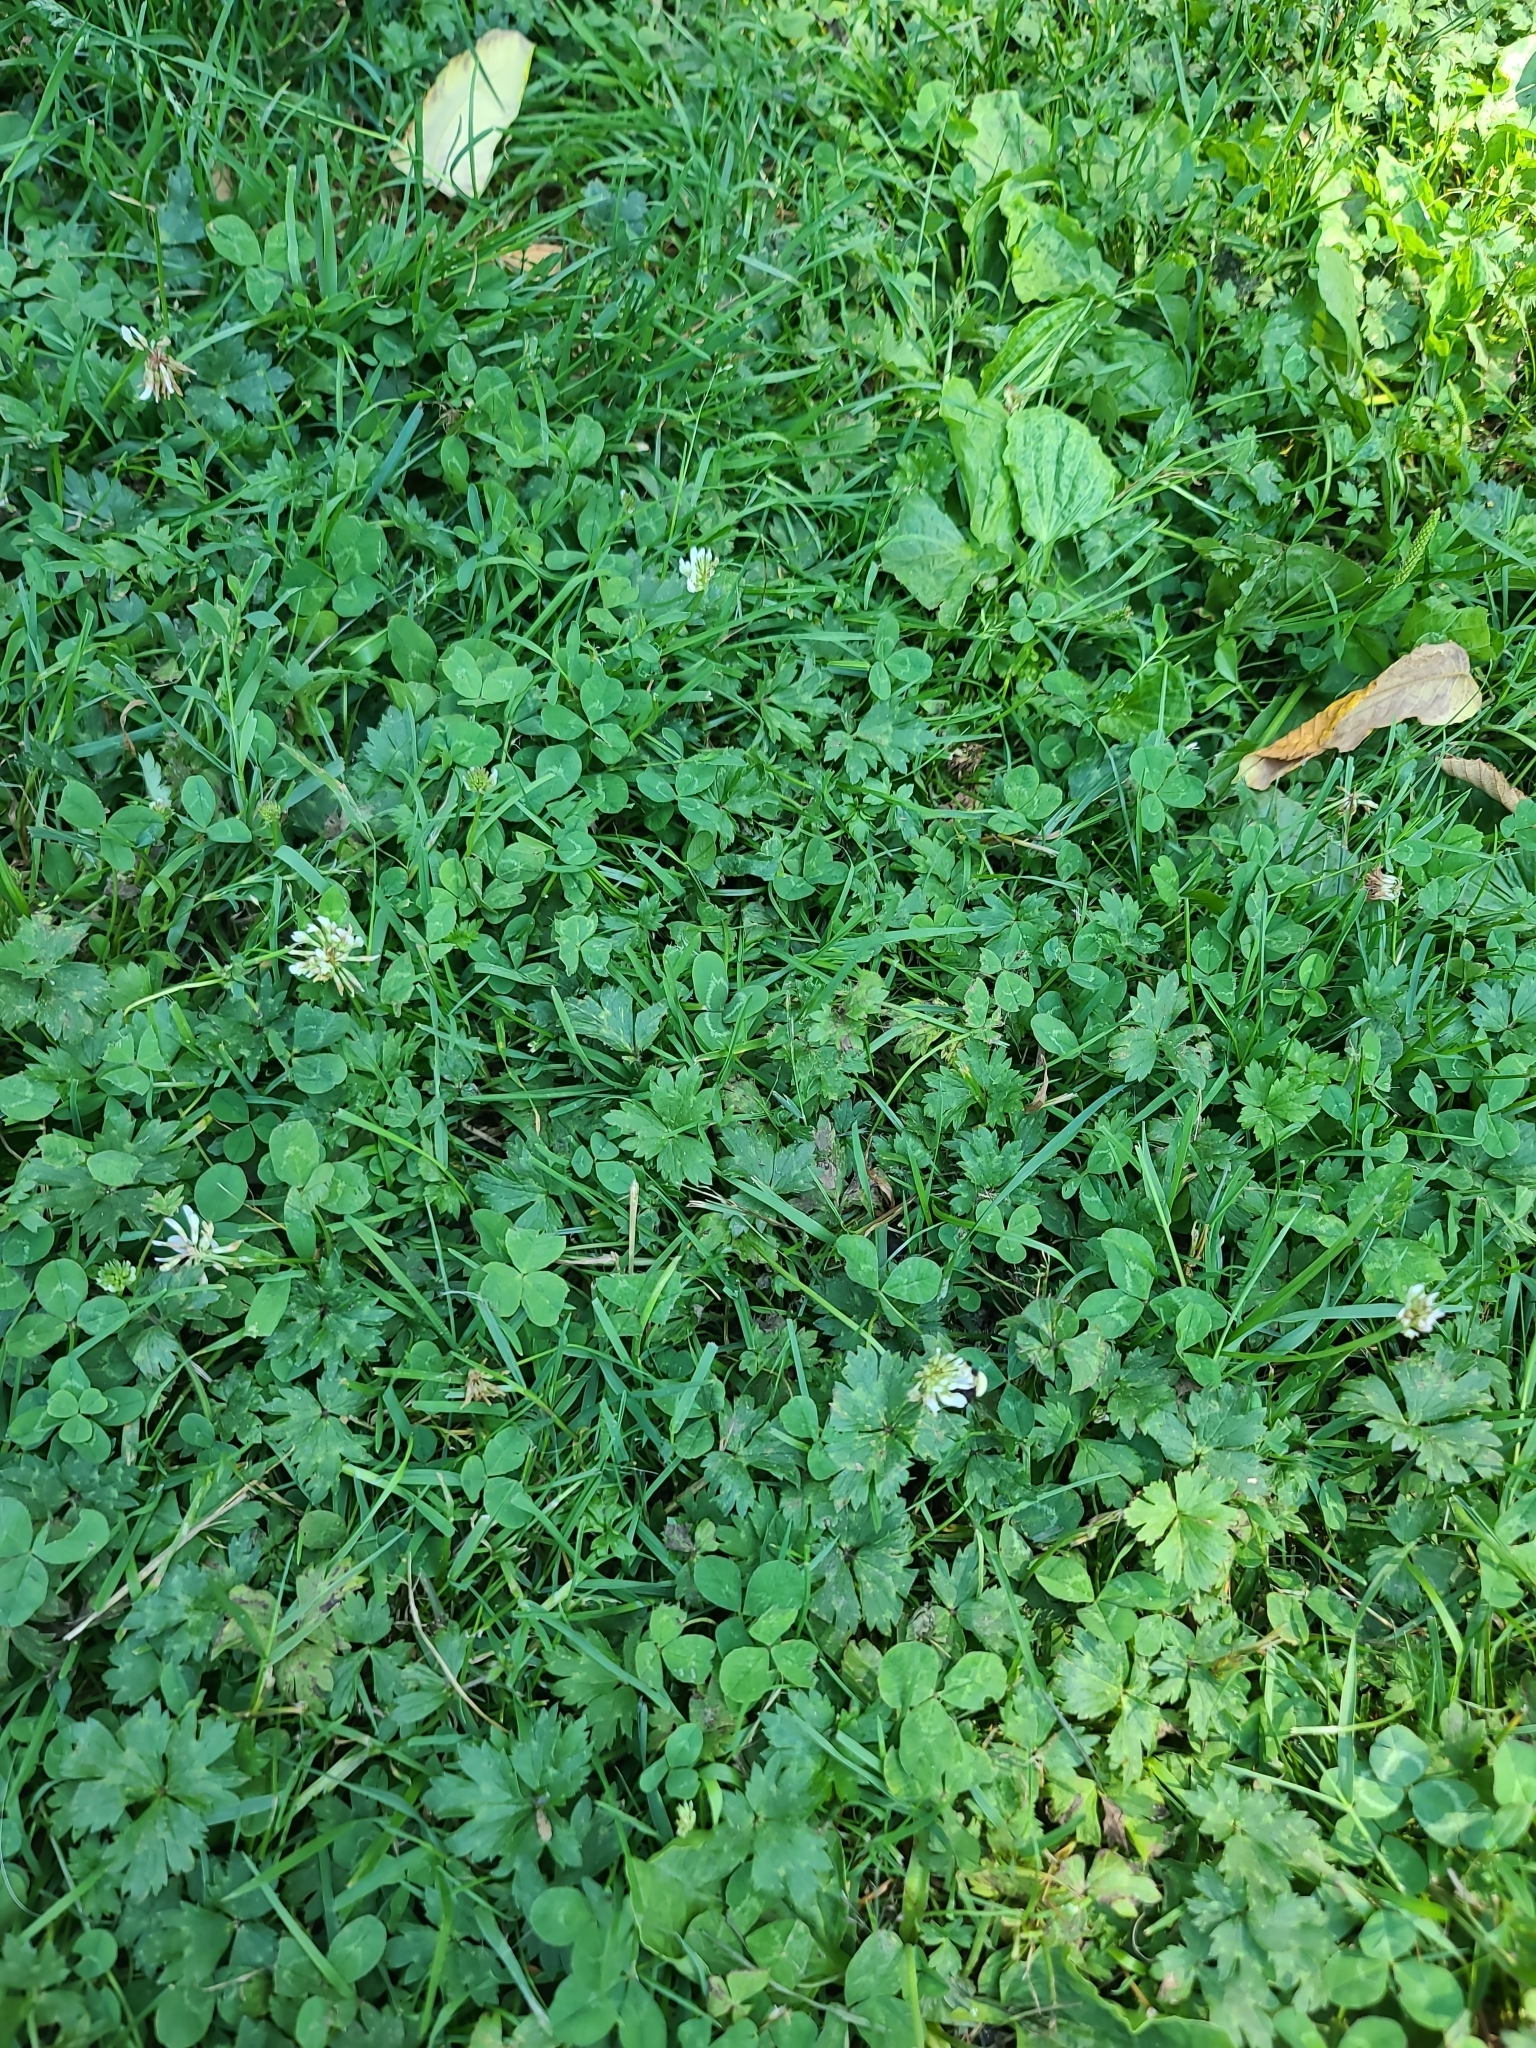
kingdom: Plantae
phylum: Tracheophyta
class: Magnoliopsida
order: Ranunculales
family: Ranunculaceae
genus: Ranunculus
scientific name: Ranunculus repens
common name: Creeping buttercup
